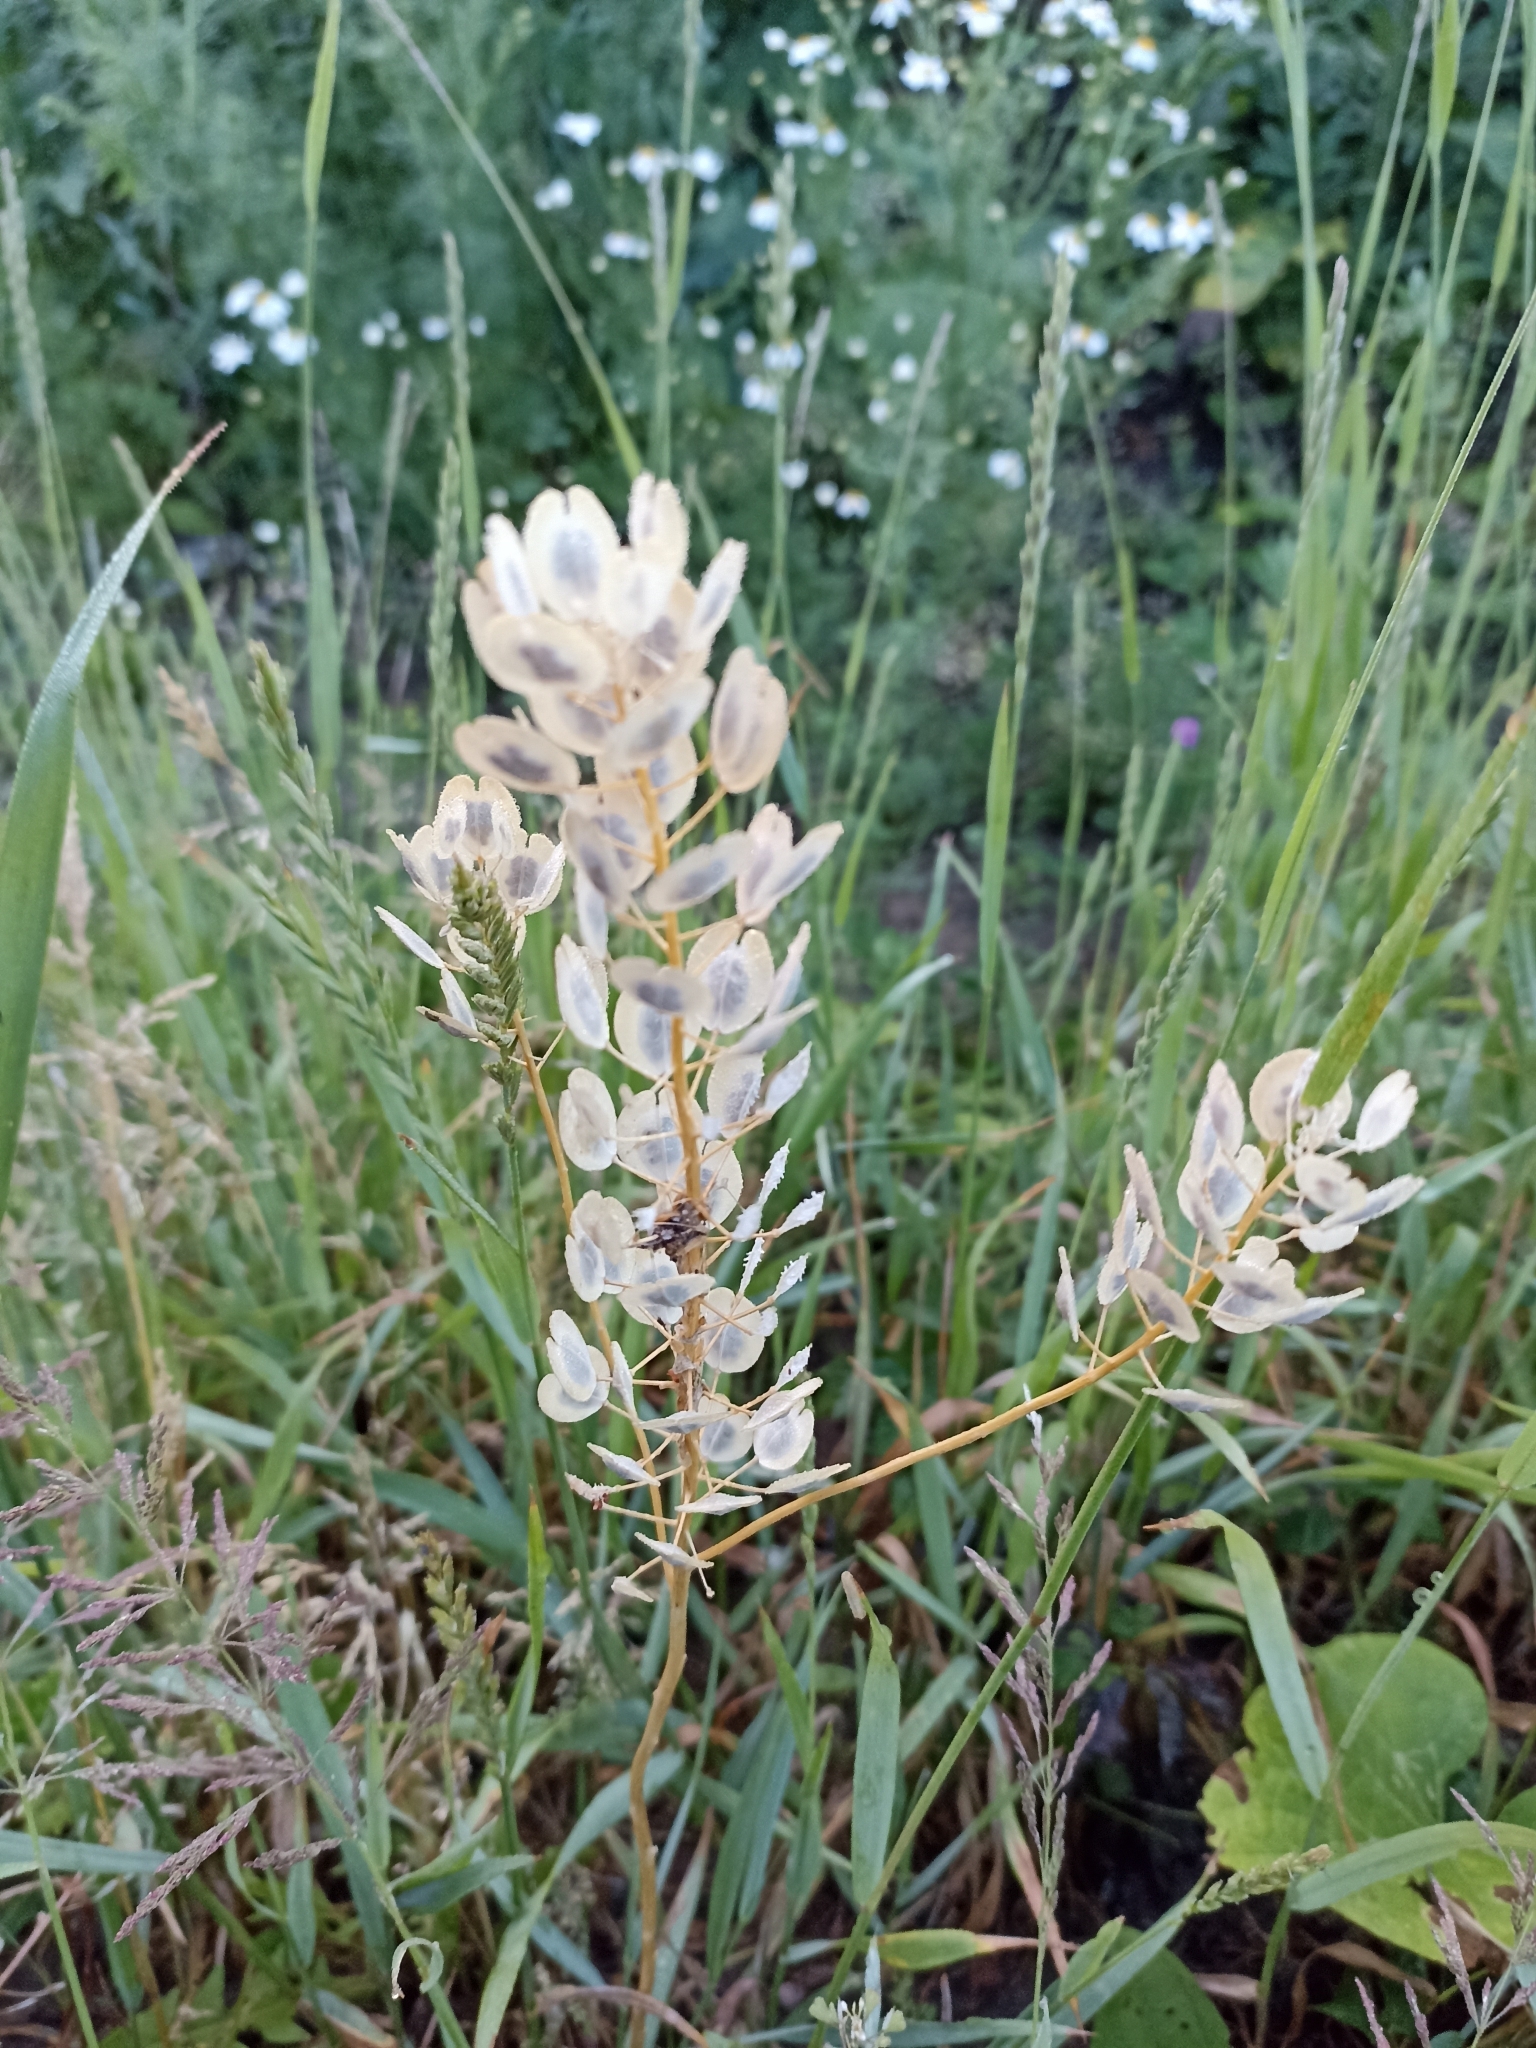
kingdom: Plantae
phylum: Tracheophyta
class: Magnoliopsida
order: Brassicales
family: Brassicaceae
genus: Thlaspi
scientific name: Thlaspi arvense
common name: Field pennycress
